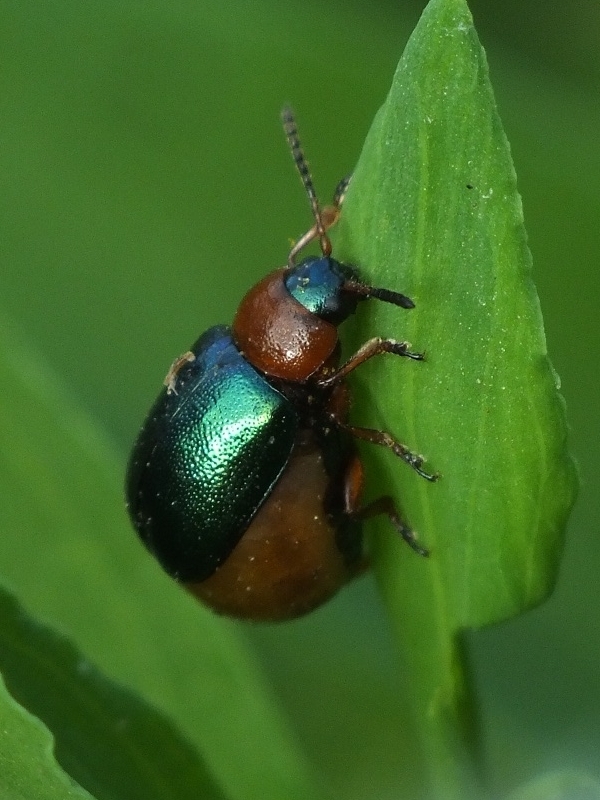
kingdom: Animalia
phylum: Arthropoda
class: Insecta
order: Coleoptera
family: Chrysomelidae
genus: Gastrophysa
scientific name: Gastrophysa polygoni
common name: Knotweed leaf beetle
